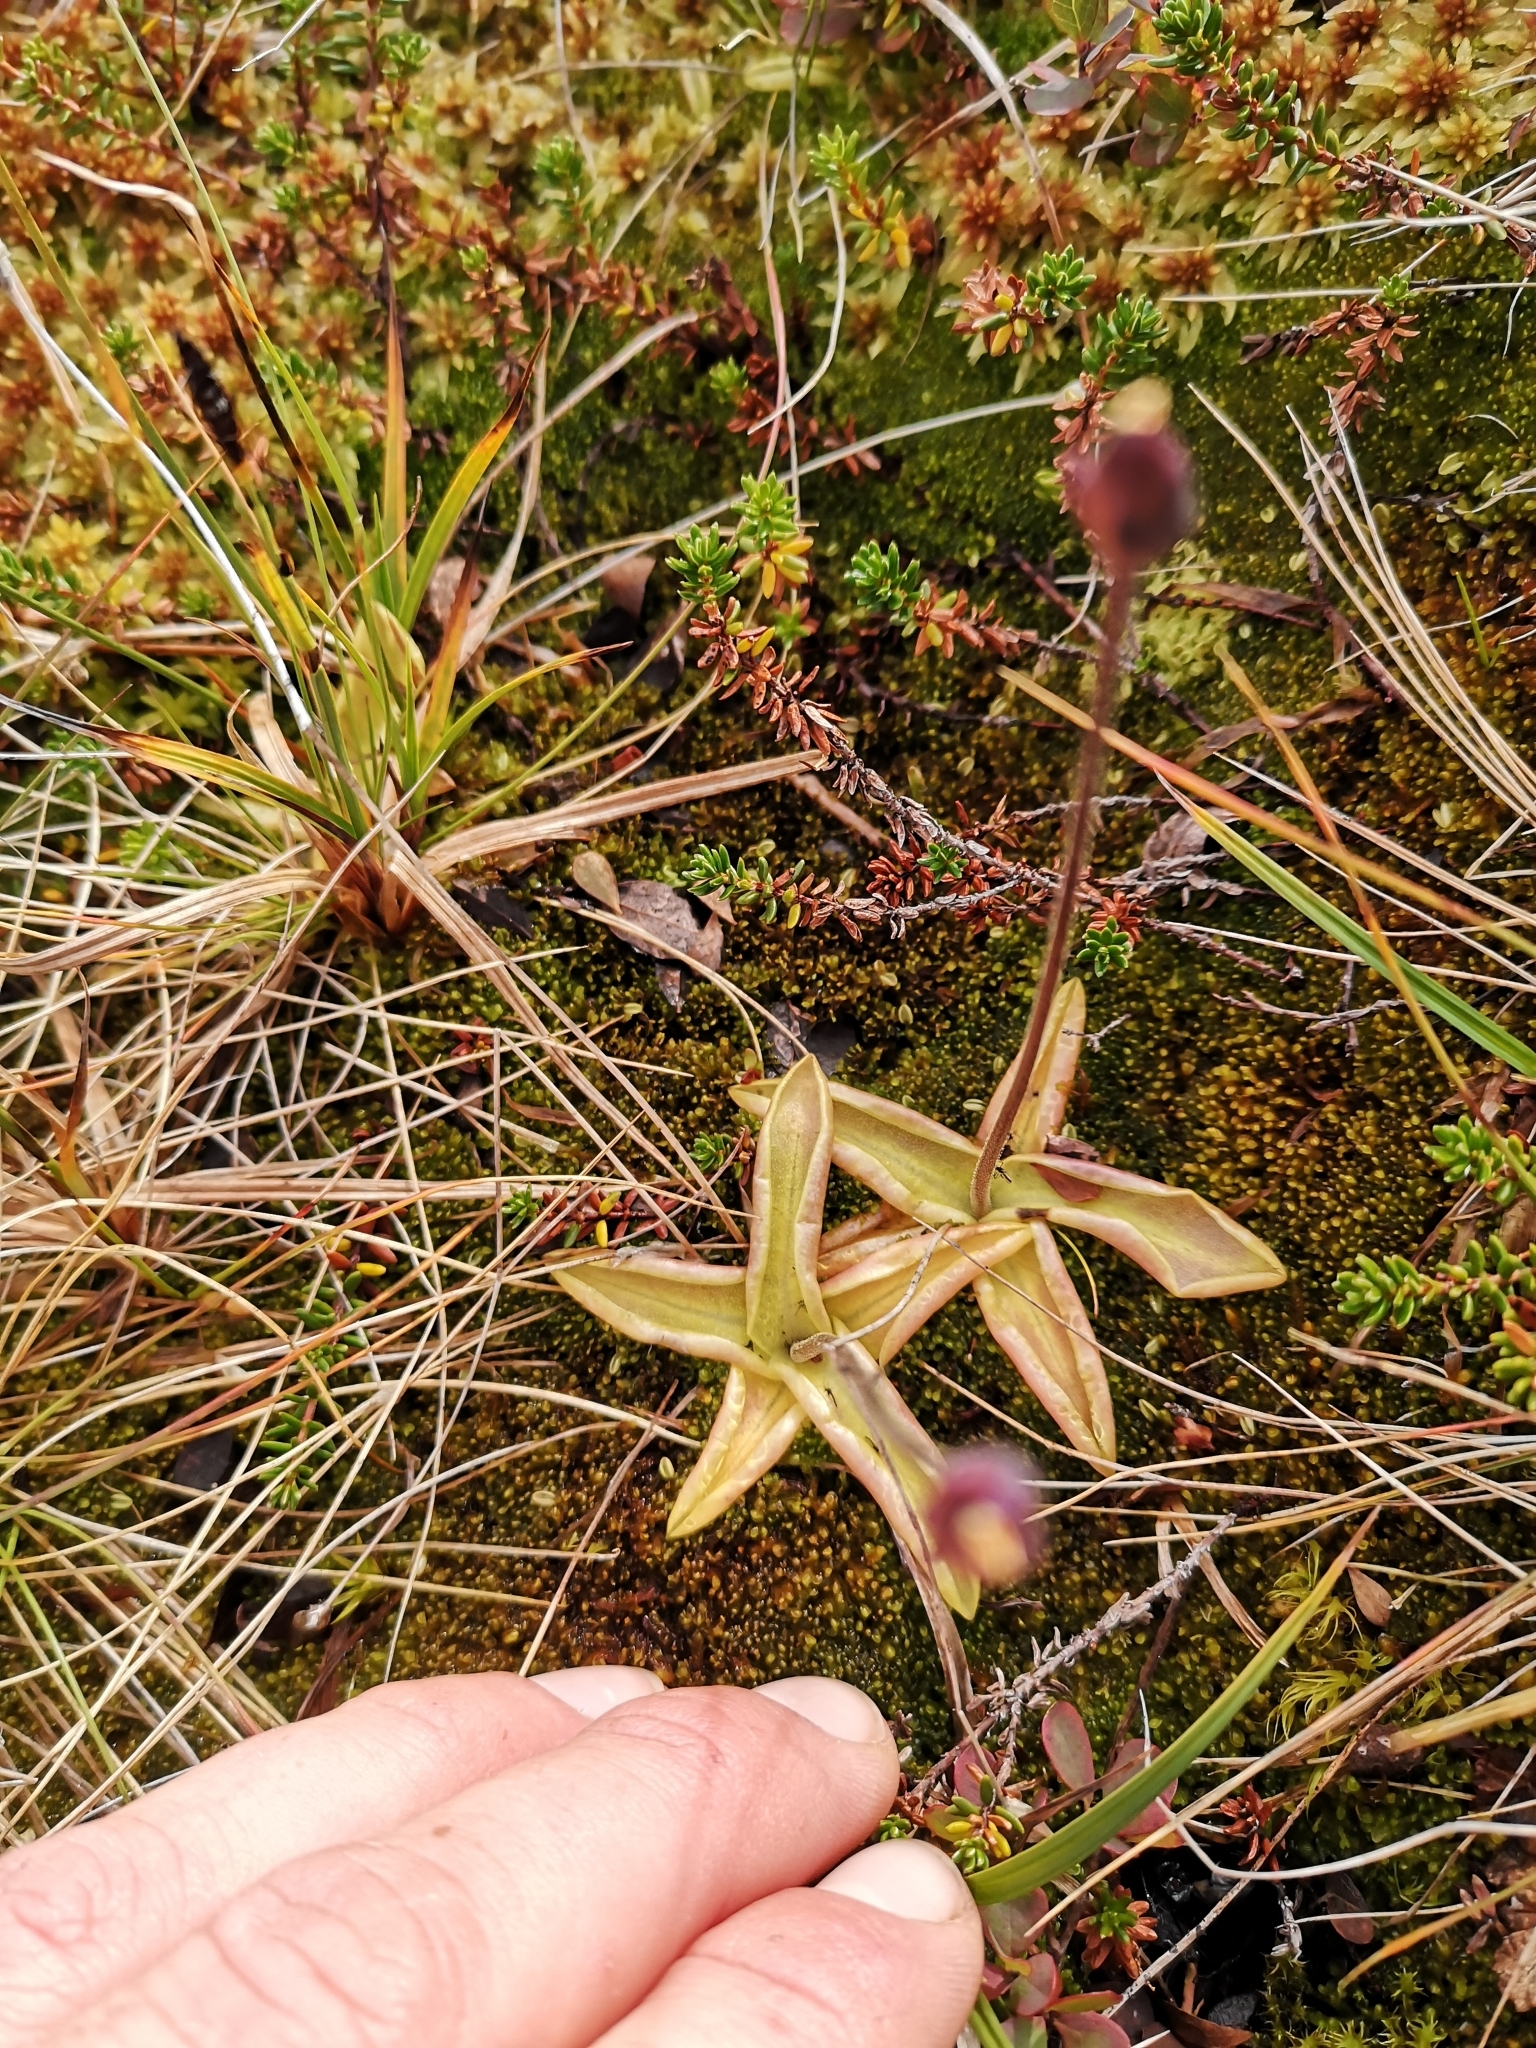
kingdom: Plantae
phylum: Tracheophyta
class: Magnoliopsida
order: Lamiales
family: Lentibulariaceae
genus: Pinguicula
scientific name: Pinguicula vulgaris
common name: Common butterwort
